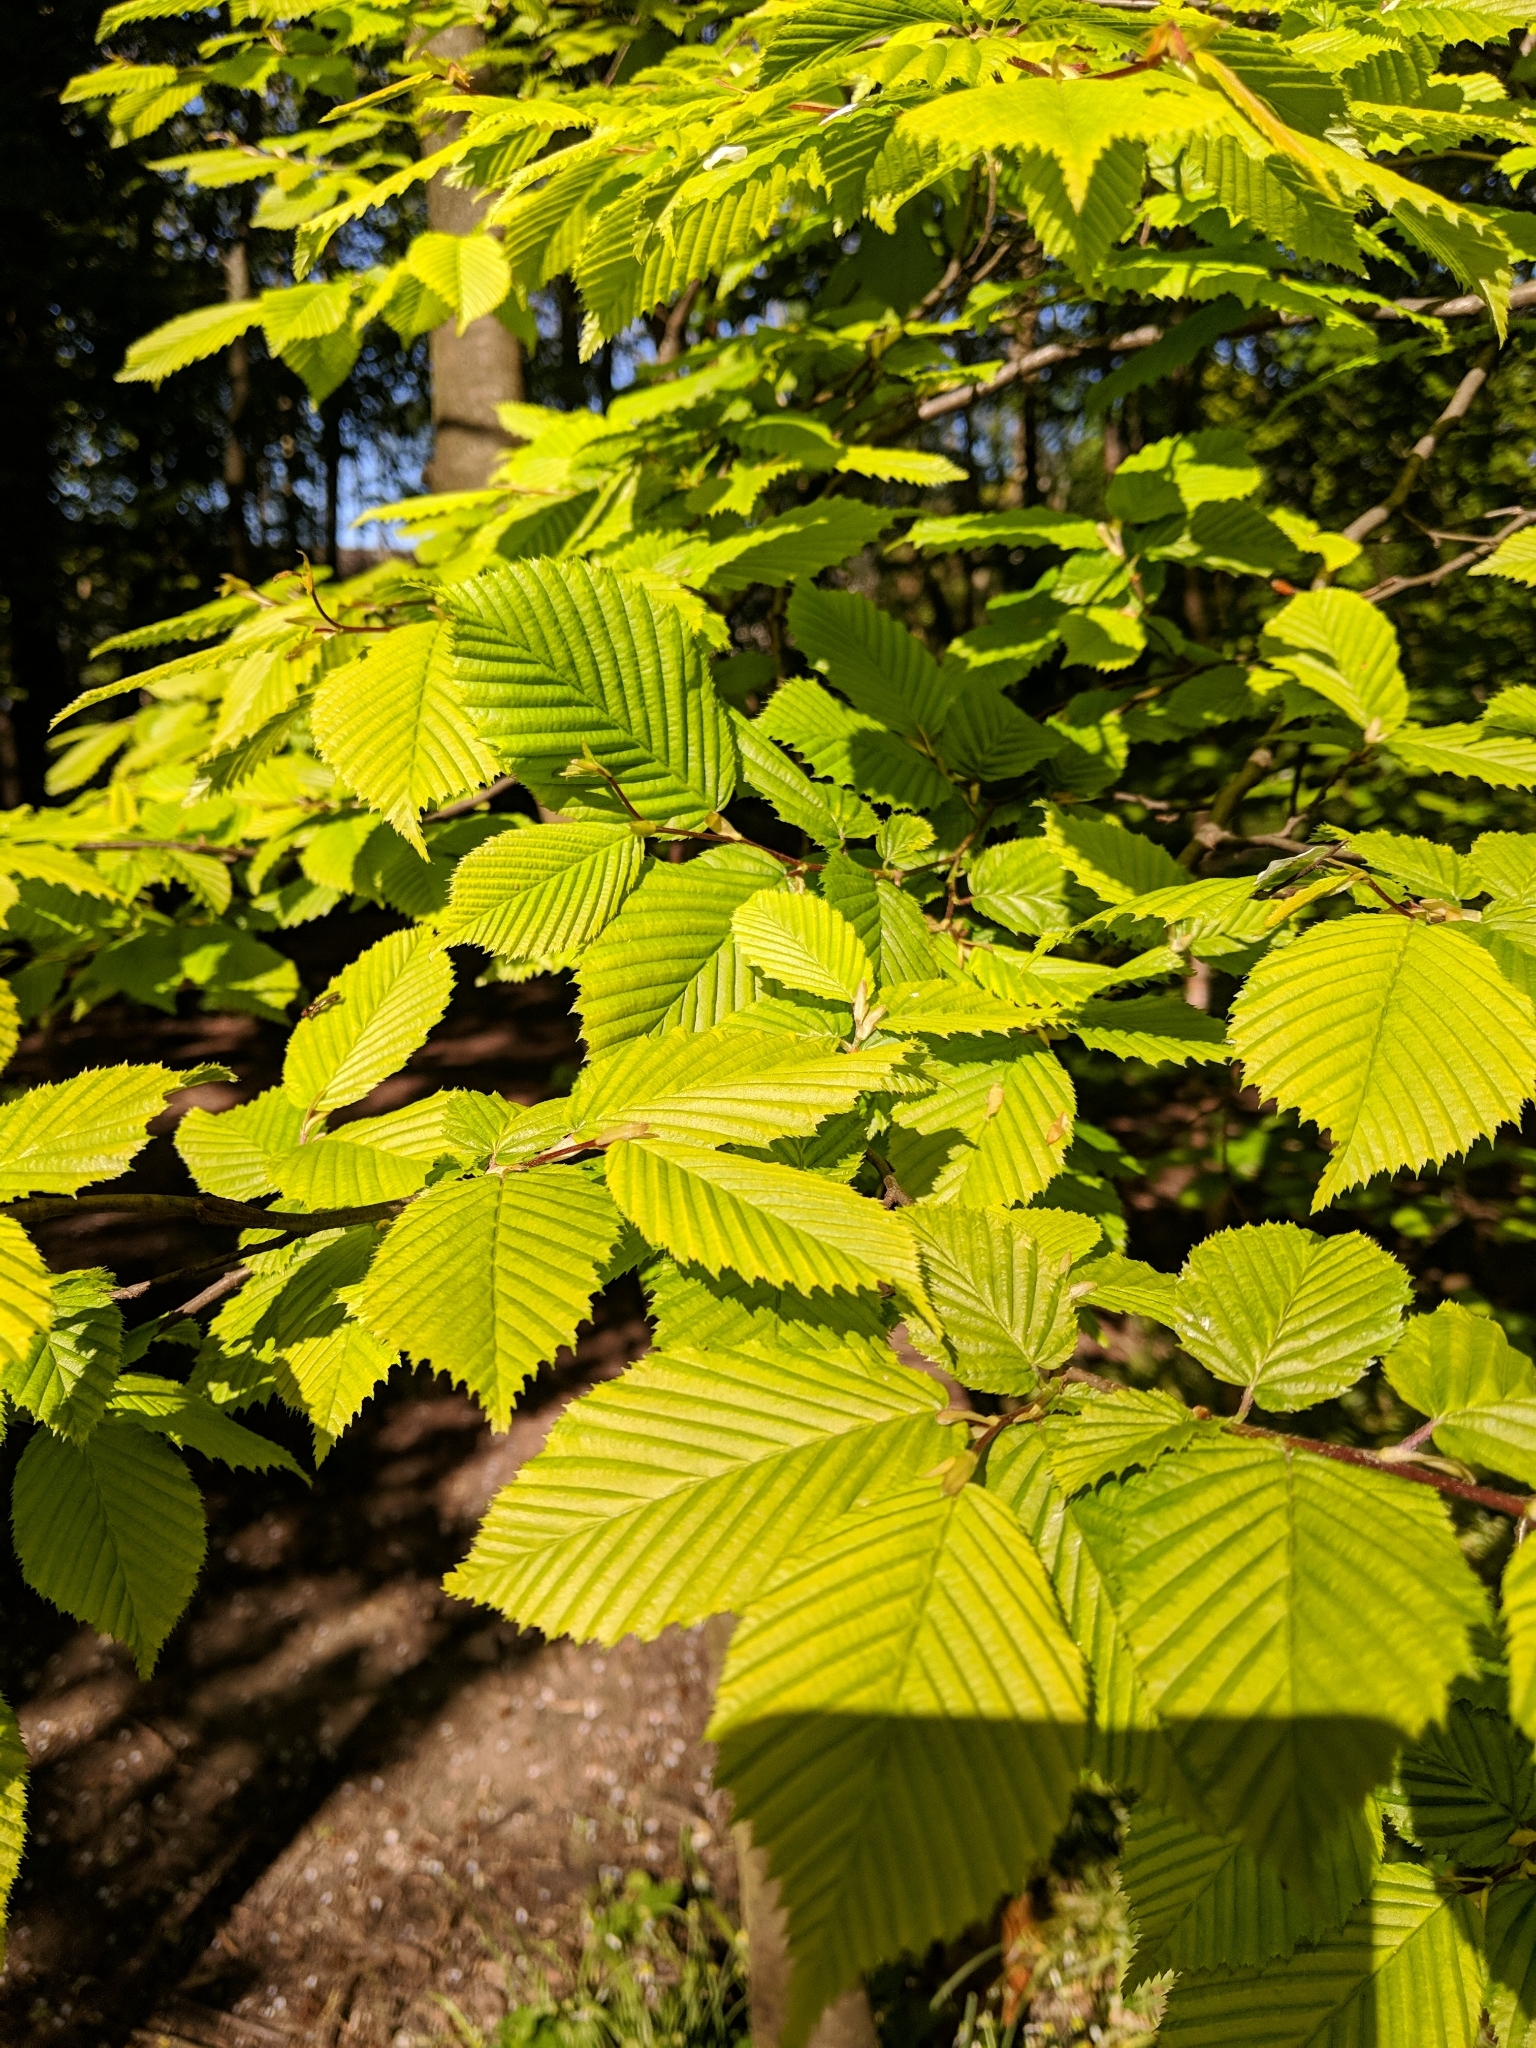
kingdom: Plantae
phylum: Tracheophyta
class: Magnoliopsida
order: Fagales
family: Betulaceae
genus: Carpinus
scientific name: Carpinus betulus
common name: Hornbeam
